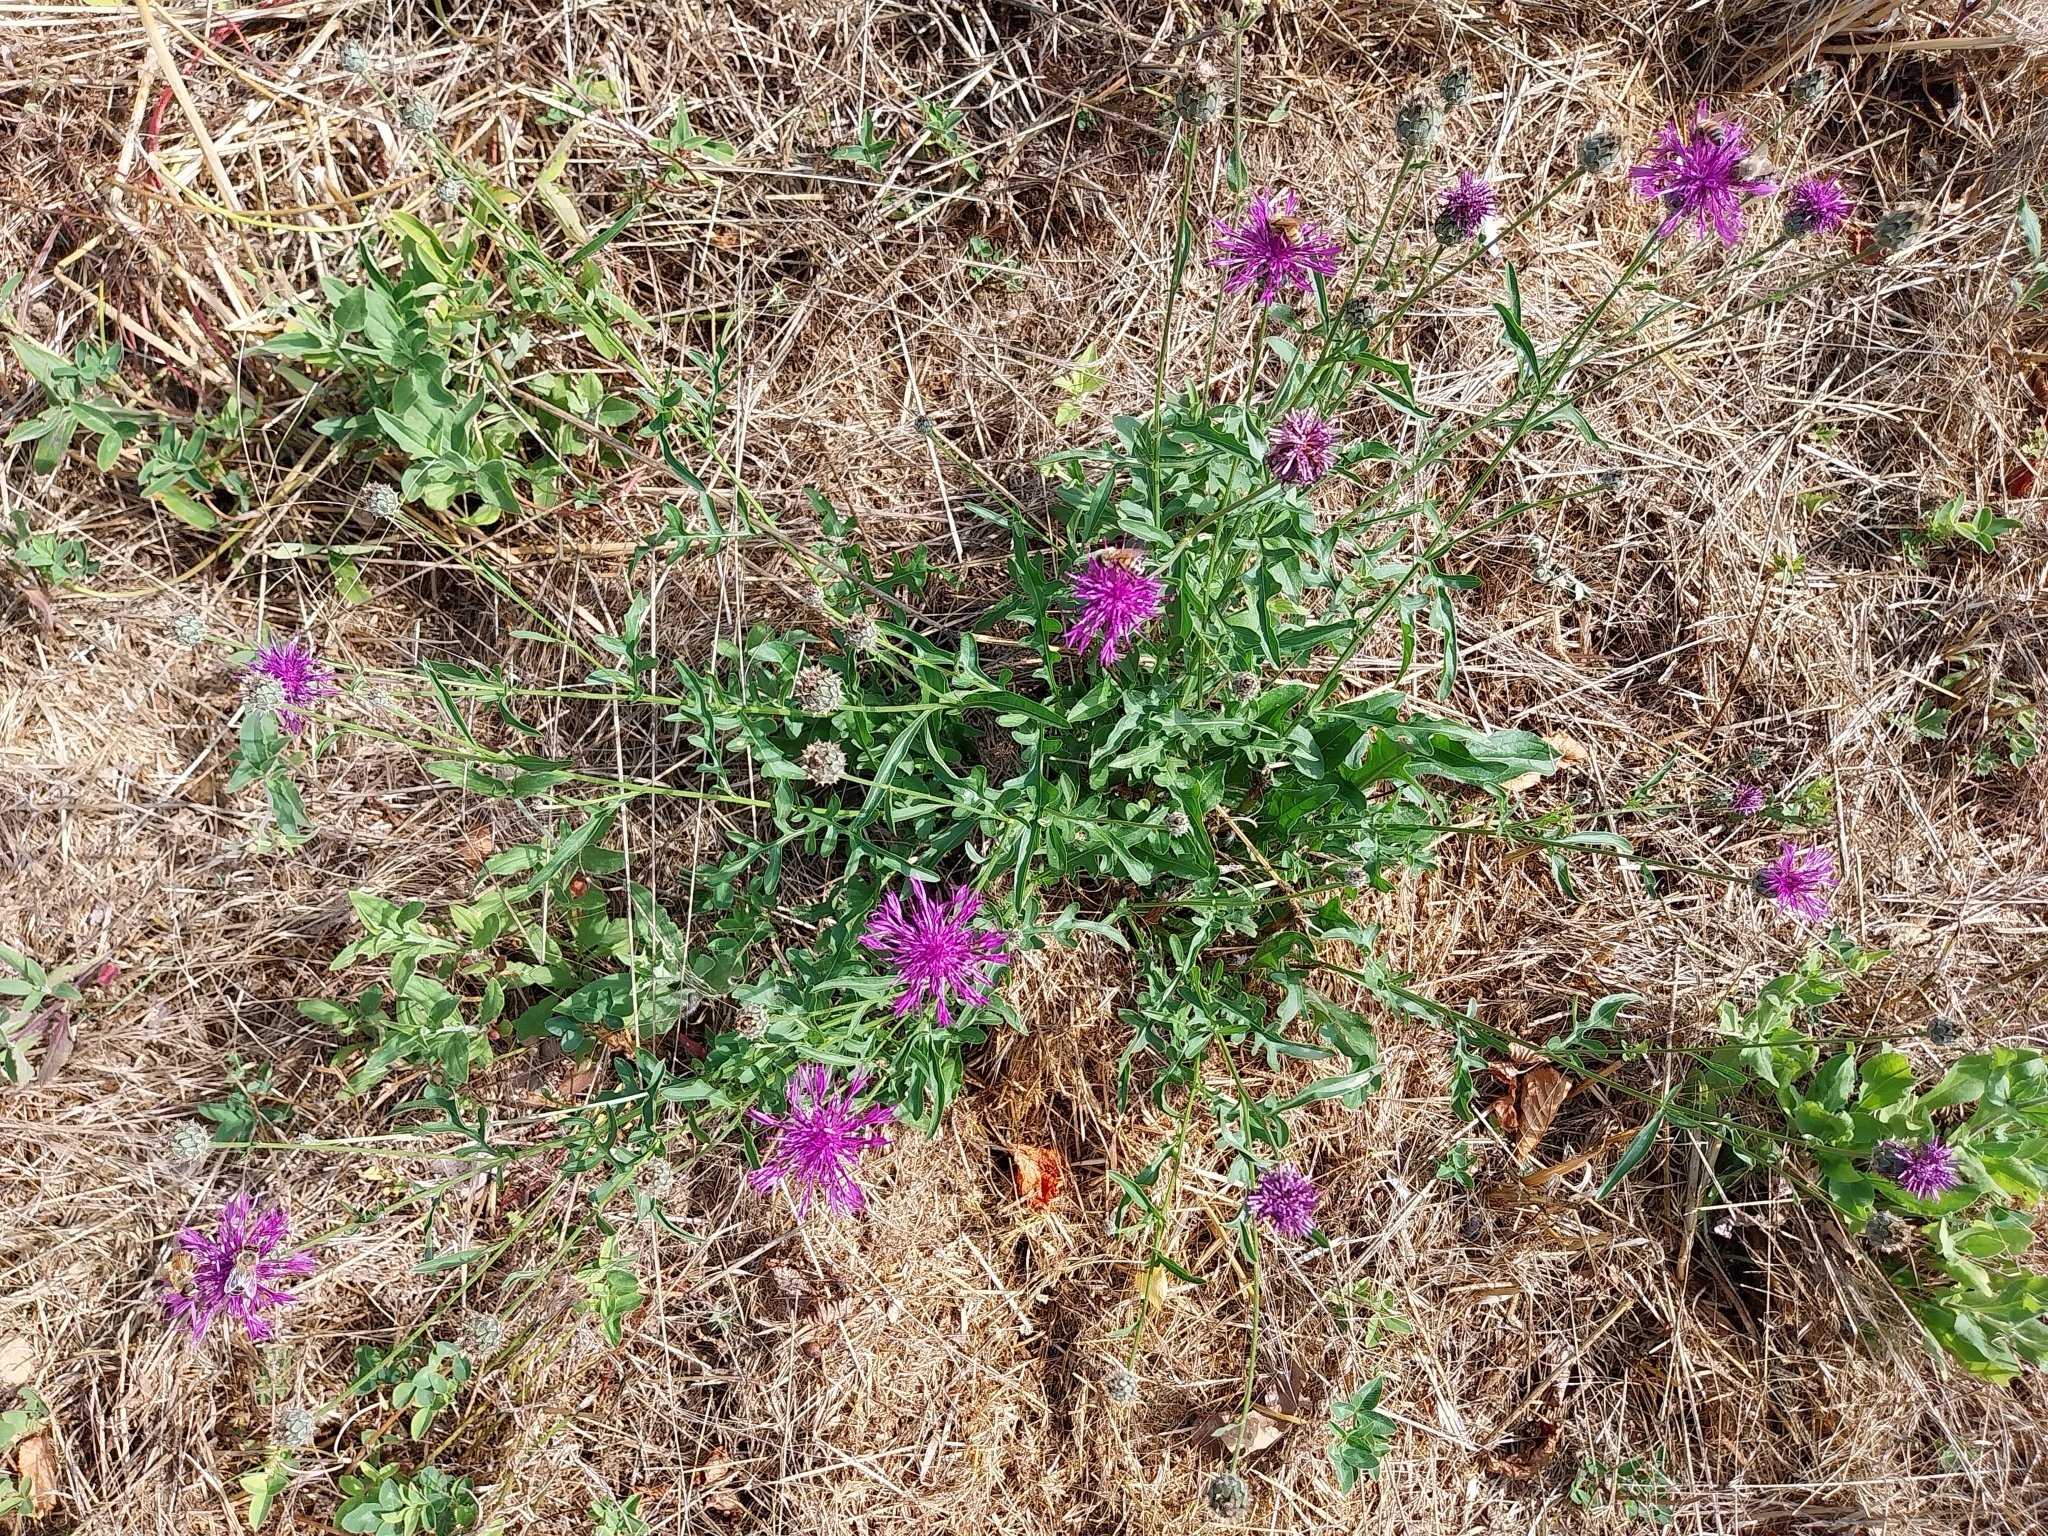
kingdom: Plantae
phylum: Tracheophyta
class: Magnoliopsida
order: Asterales
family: Asteraceae
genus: Centaurea
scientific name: Centaurea scabiosa
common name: Greater knapweed
